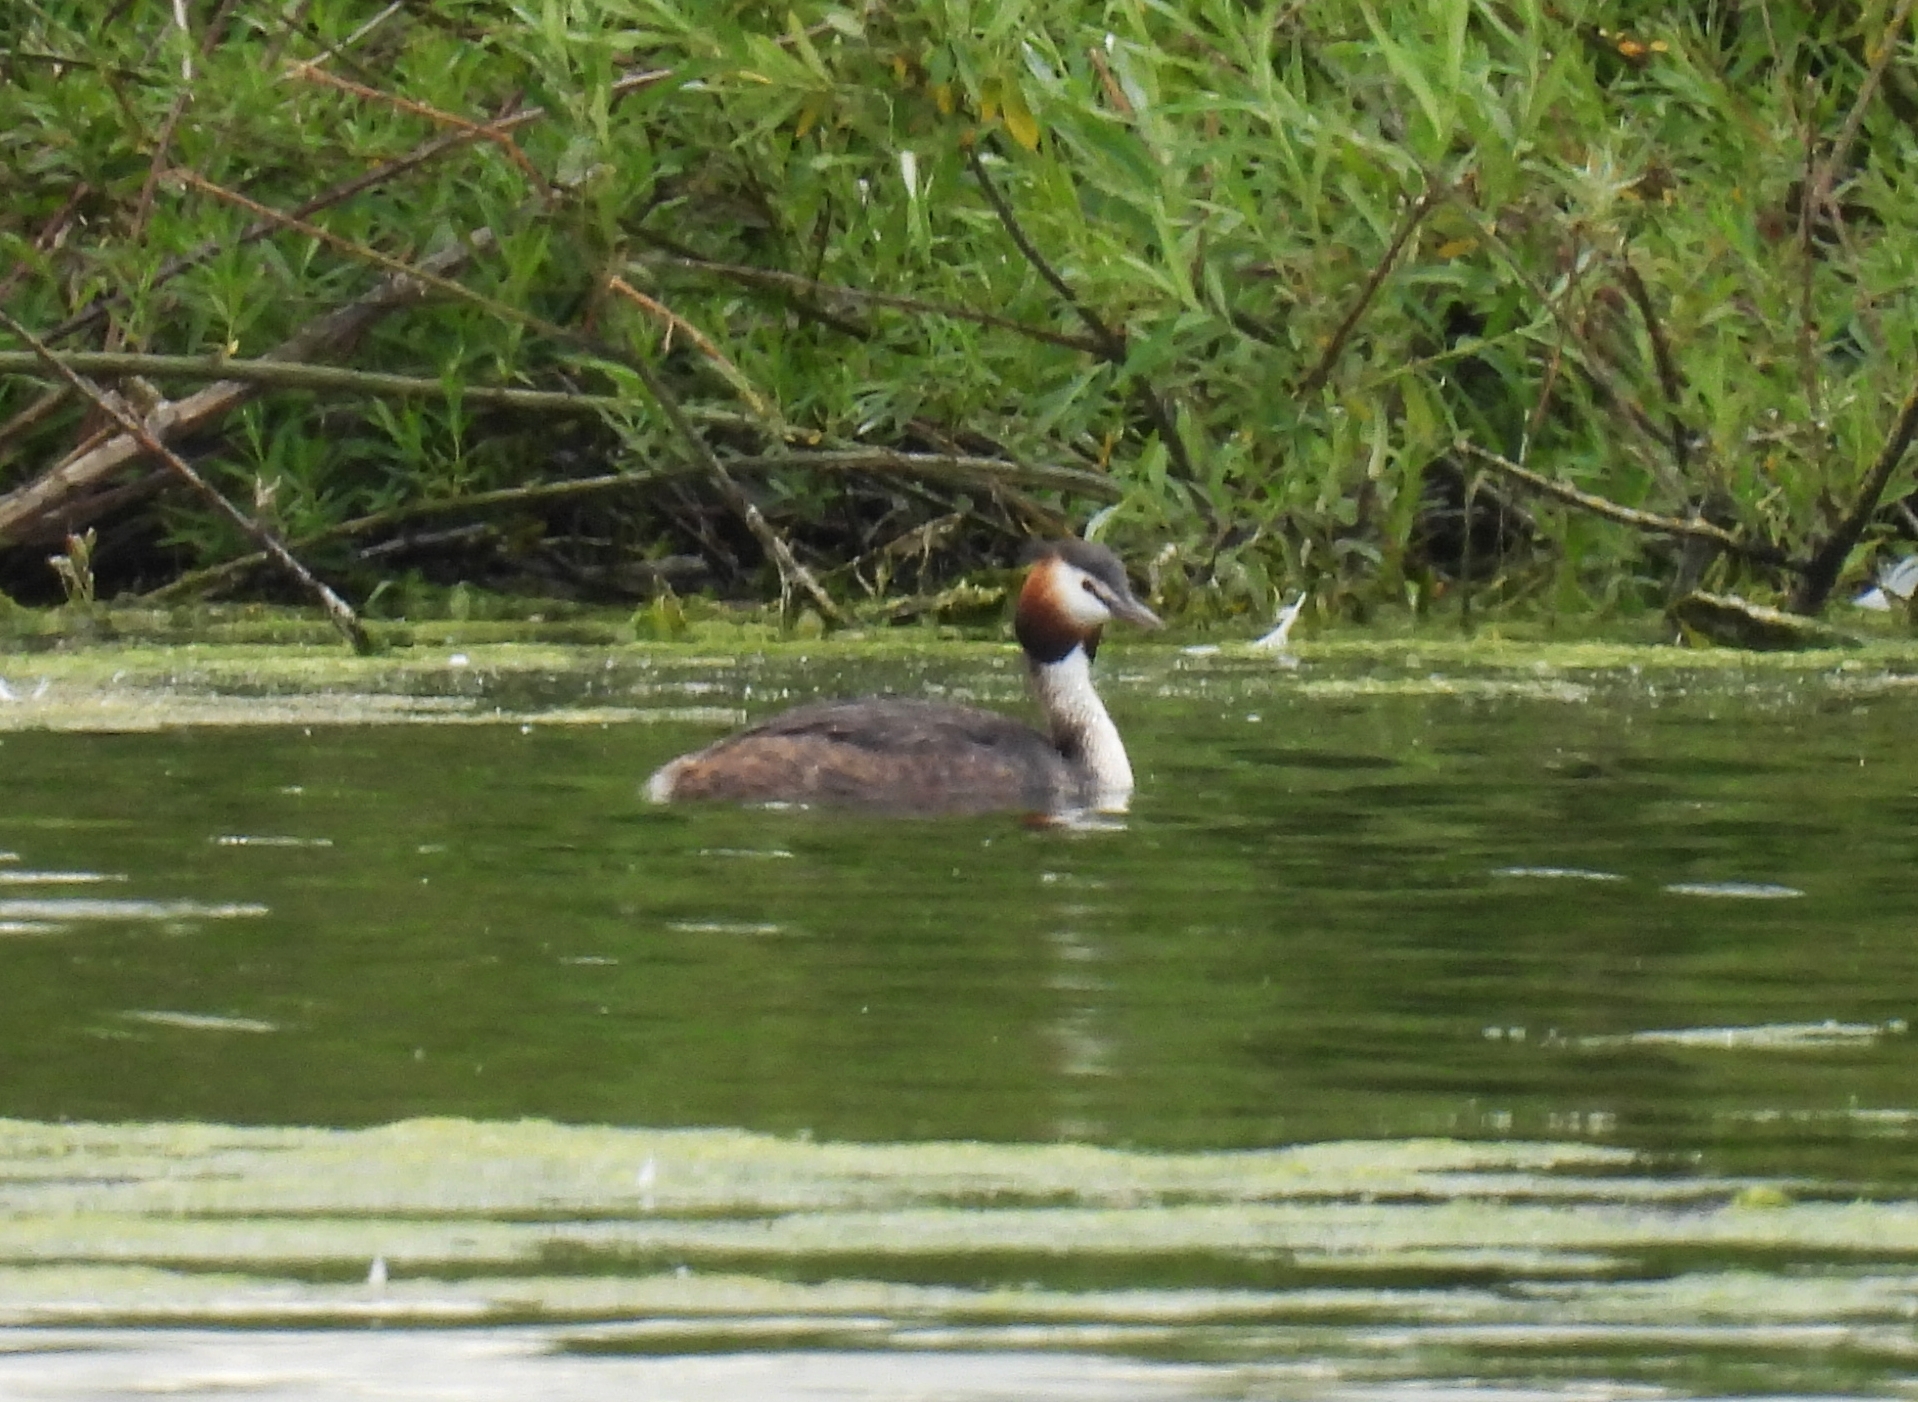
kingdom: Animalia
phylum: Chordata
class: Aves
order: Podicipediformes
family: Podicipedidae
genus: Podiceps
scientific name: Podiceps cristatus
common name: Great crested grebe
